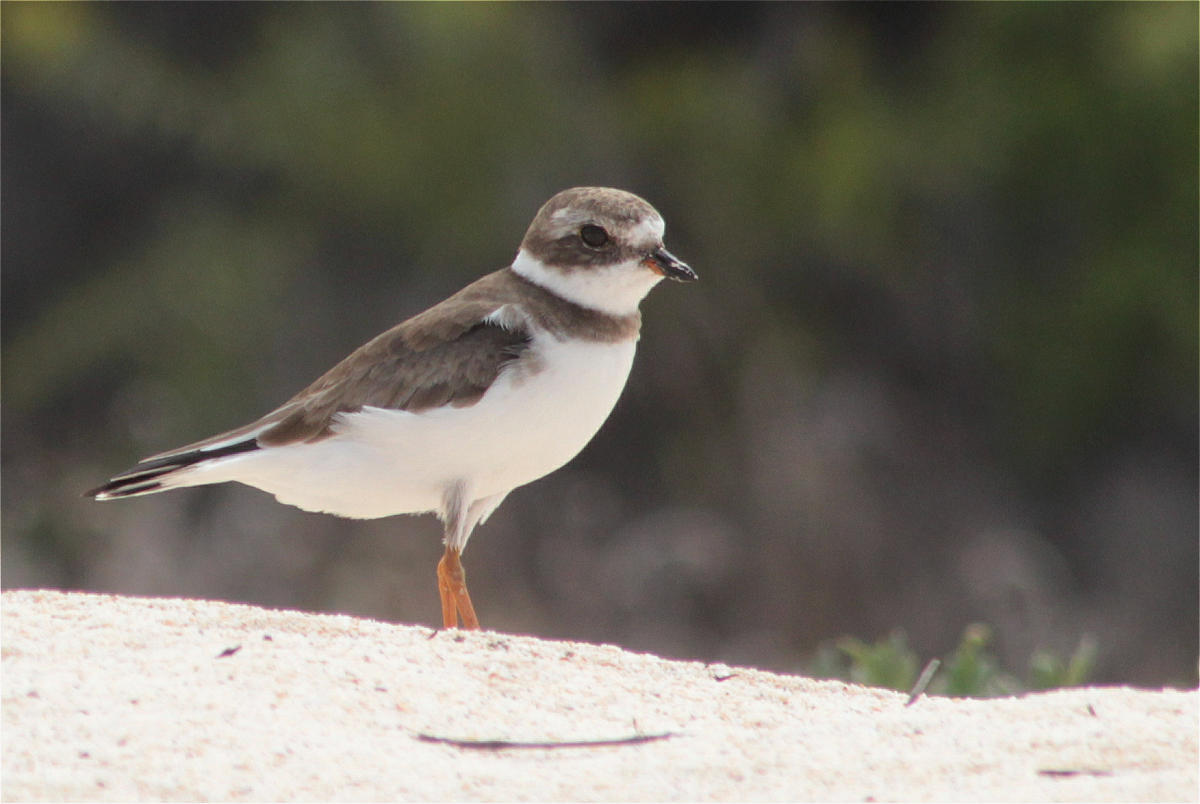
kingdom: Animalia
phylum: Chordata
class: Aves
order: Charadriiformes
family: Charadriidae
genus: Charadrius
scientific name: Charadrius semipalmatus
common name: Semipalmated plover
